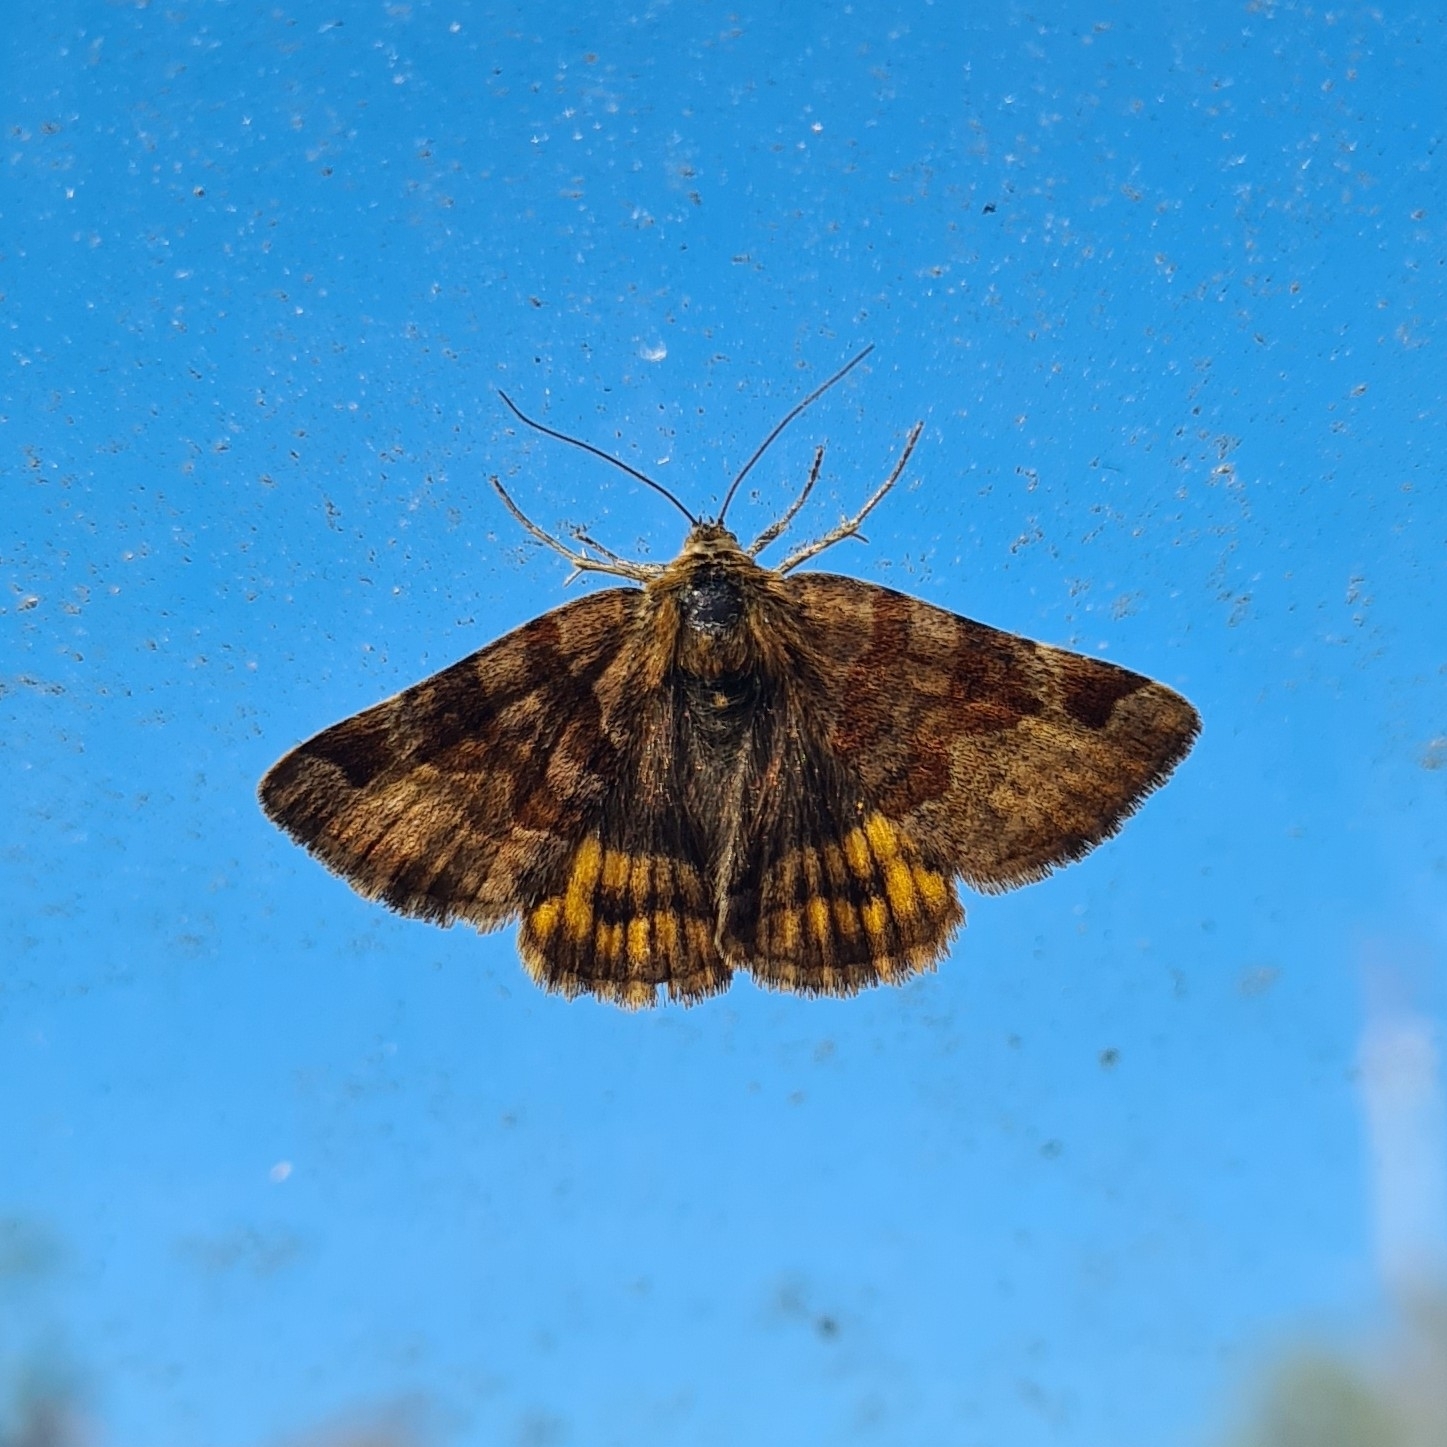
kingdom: Animalia
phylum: Arthropoda
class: Insecta
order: Lepidoptera
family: Erebidae
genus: Euclidia
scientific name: Euclidia glyphica
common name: Burnet companion
